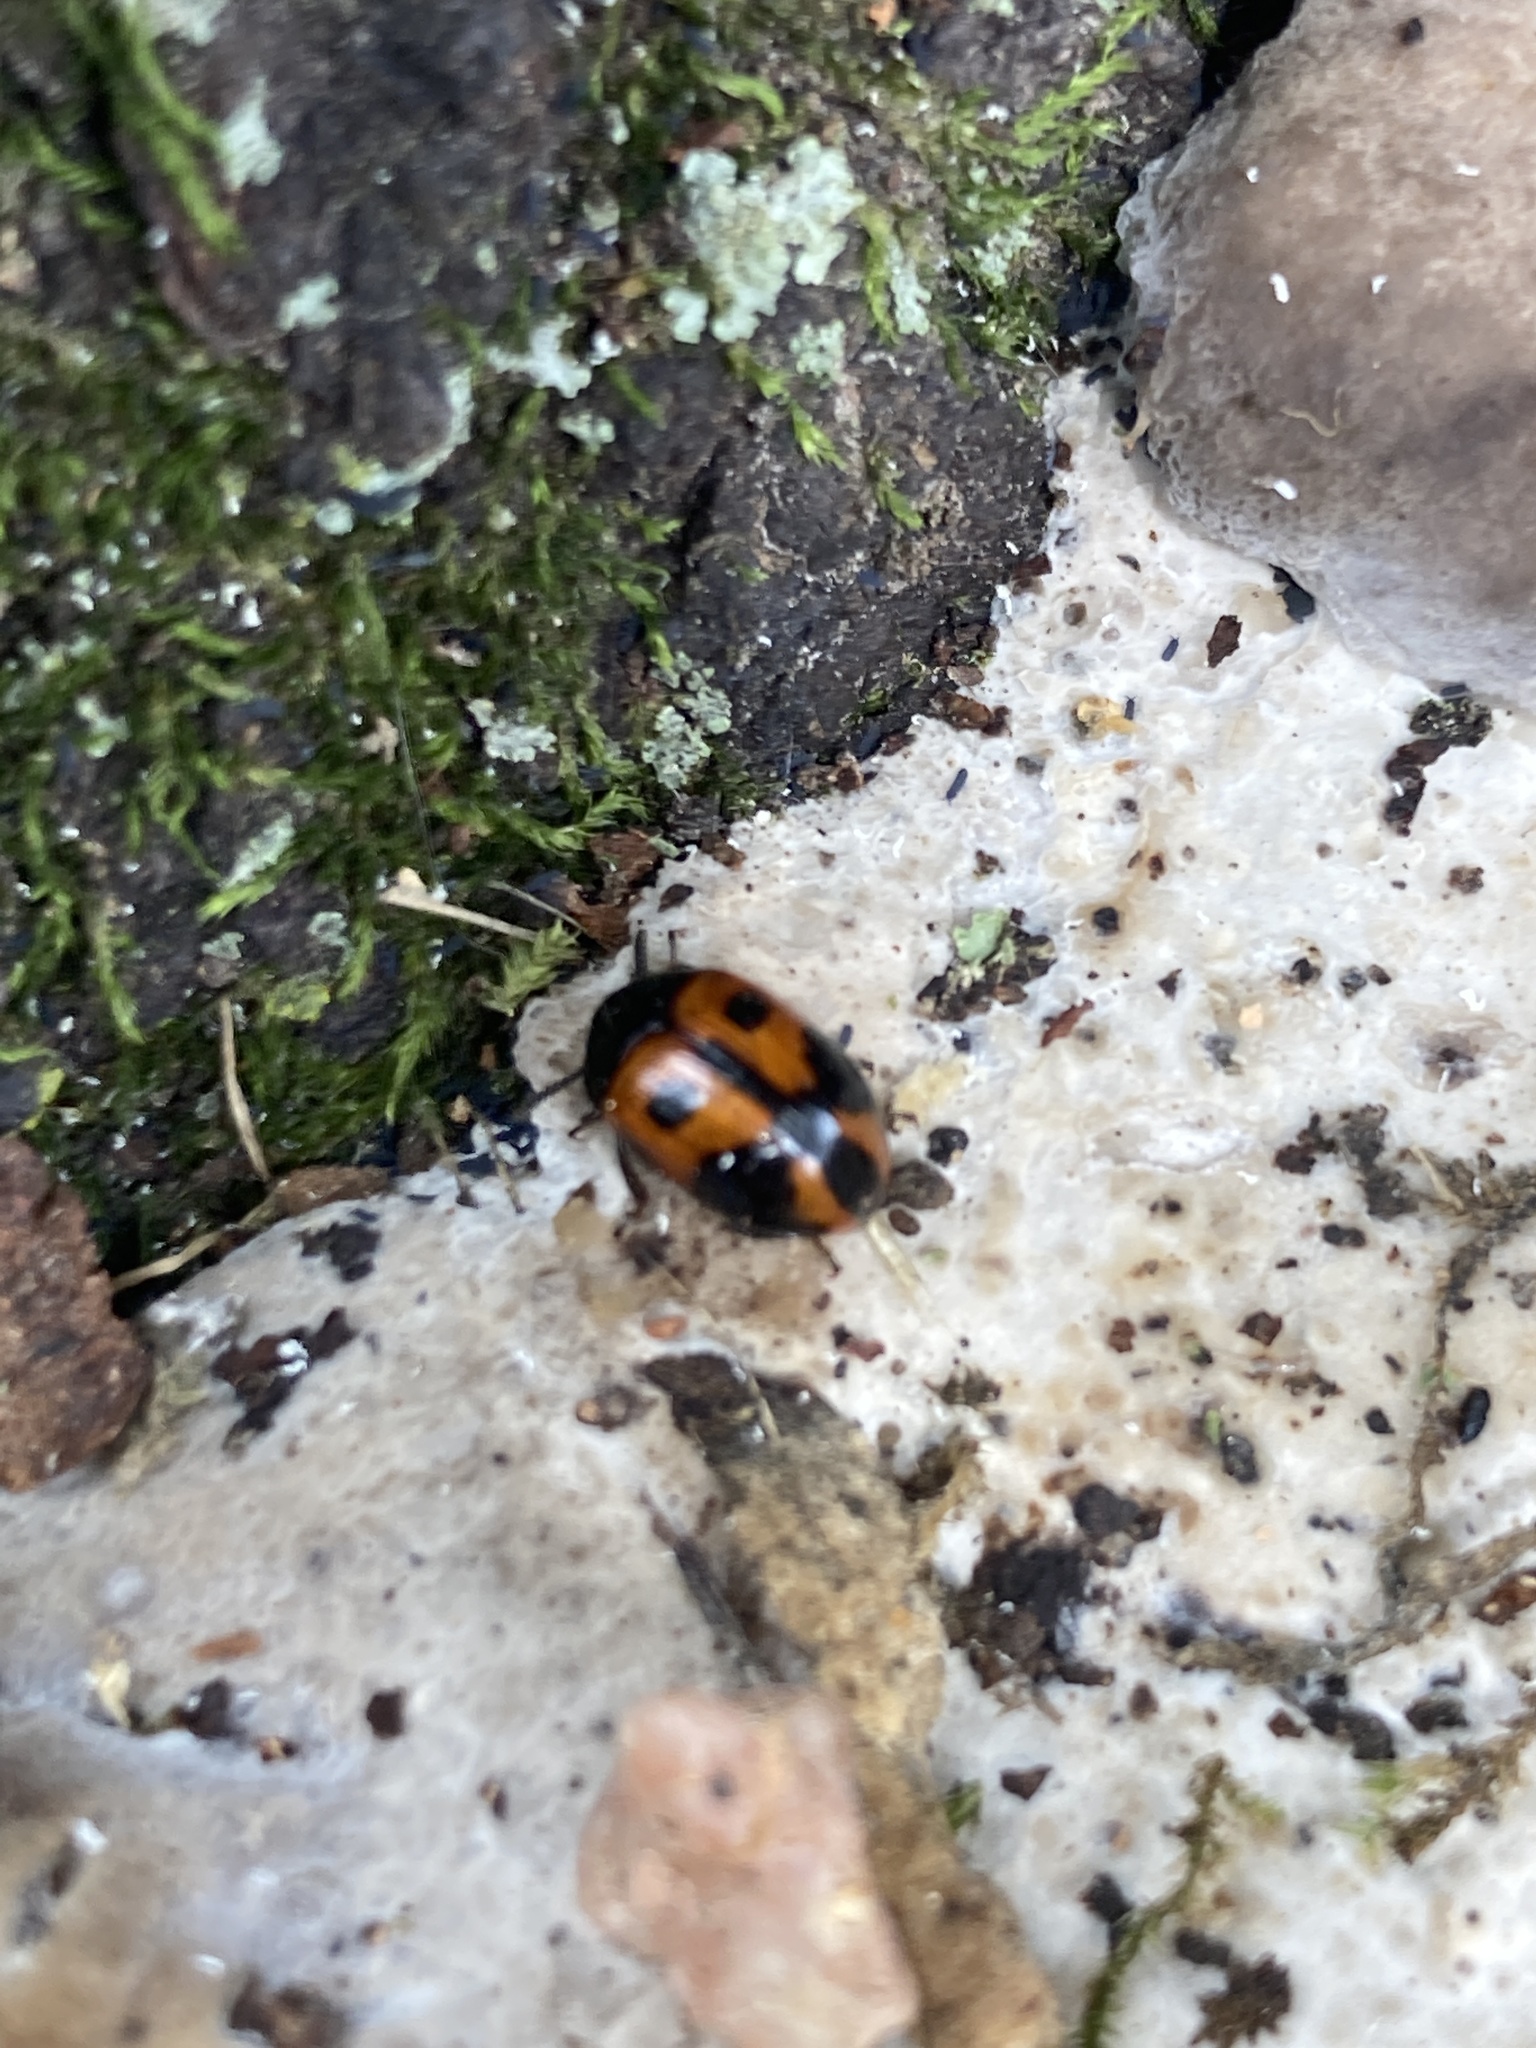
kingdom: Animalia
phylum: Arthropoda
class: Insecta
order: Coleoptera
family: Tenebrionidae
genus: Diaperis
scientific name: Diaperis maculata
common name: Darkling beetle
